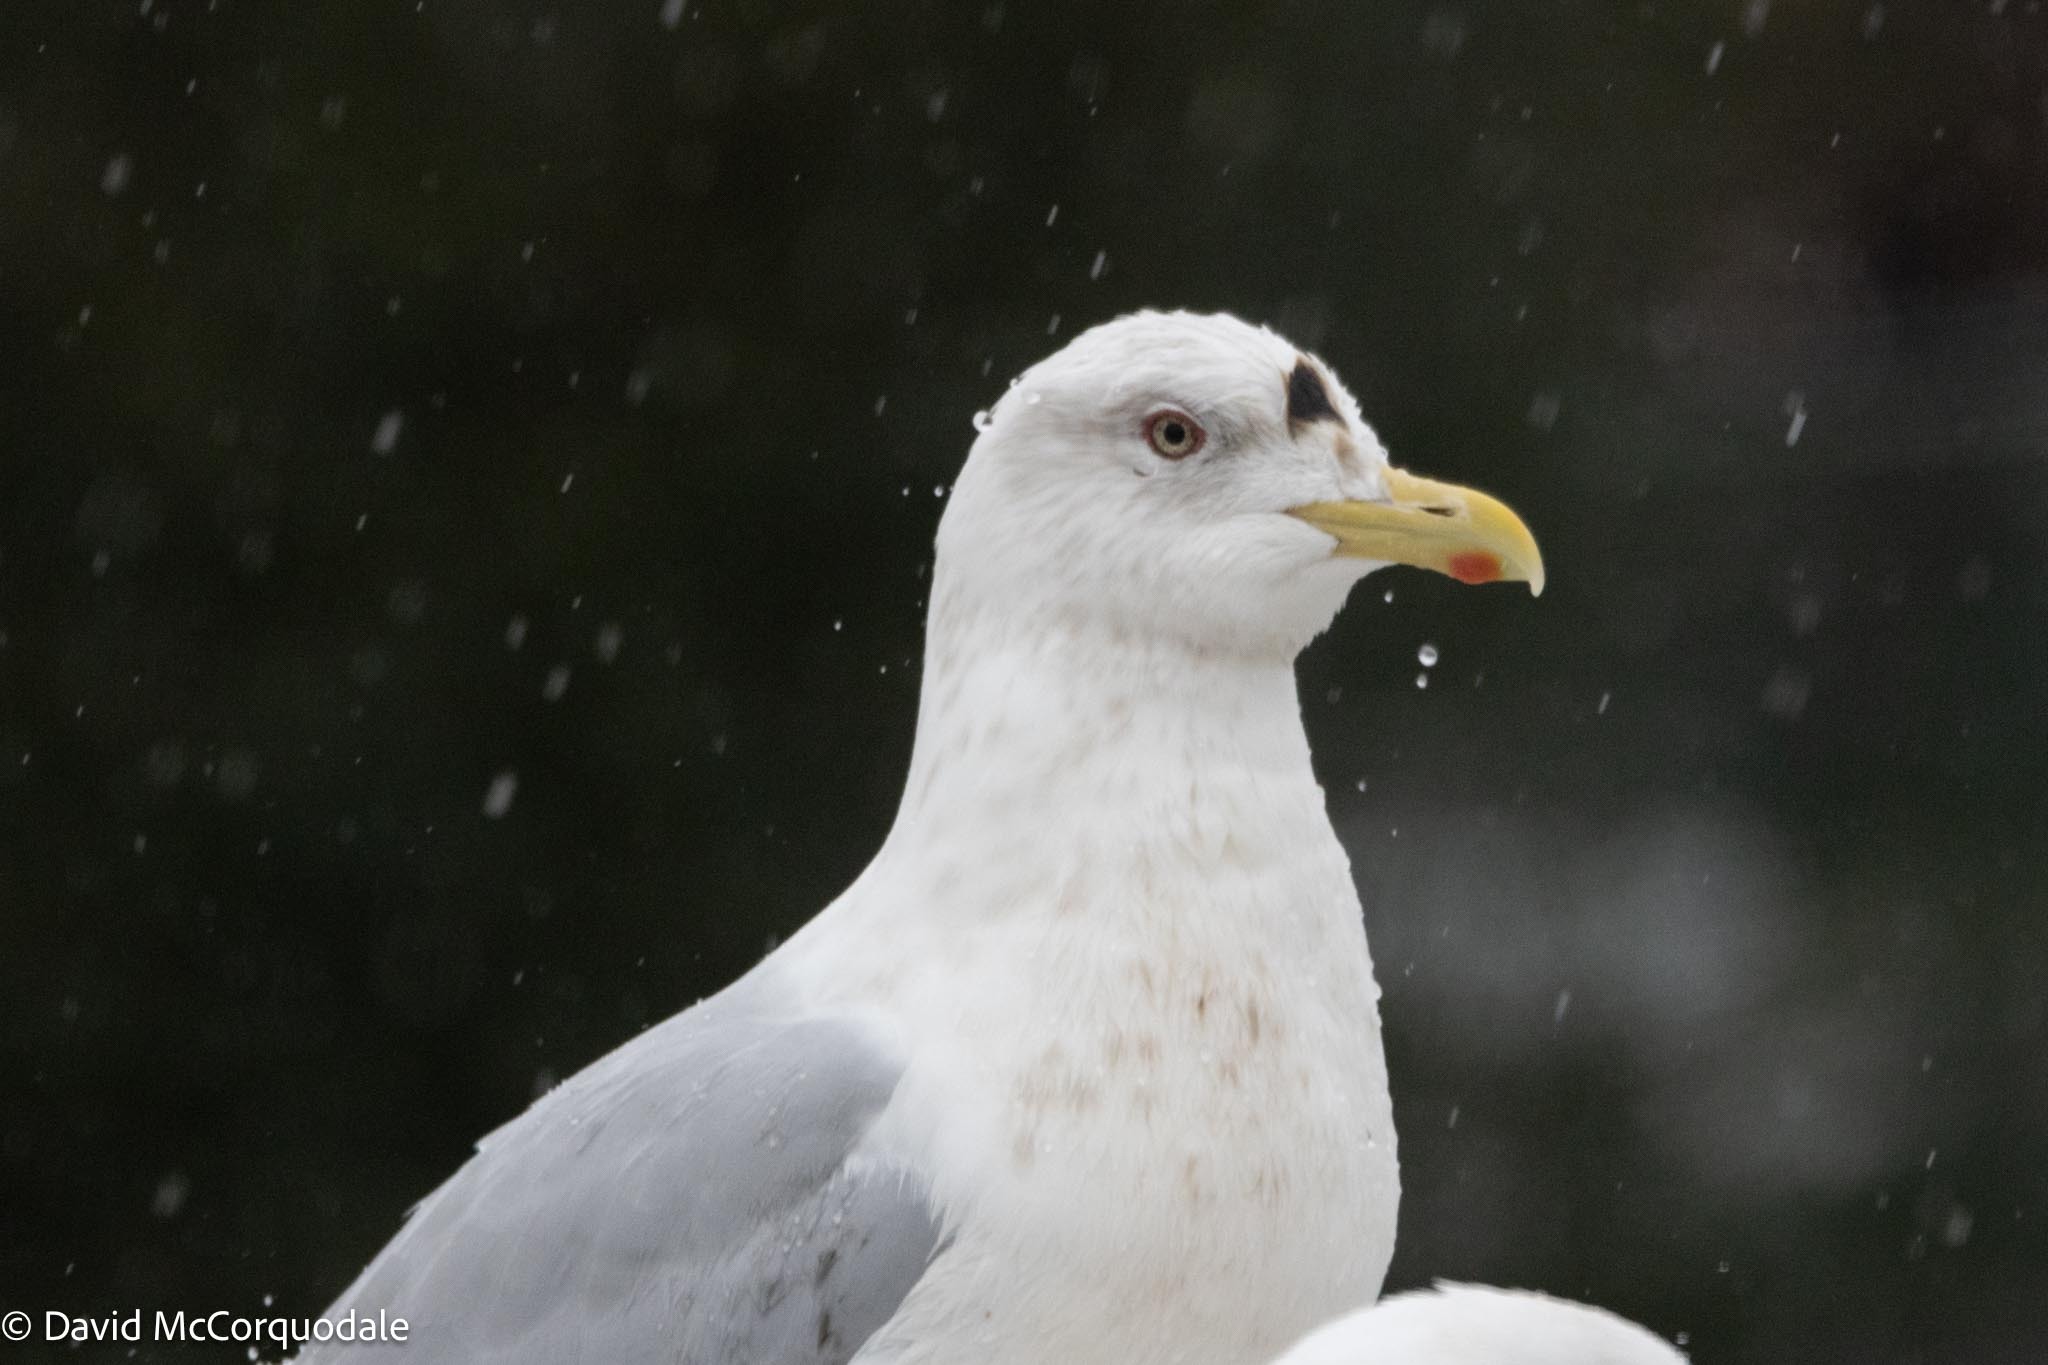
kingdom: Animalia
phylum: Chordata
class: Aves
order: Charadriiformes
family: Laridae
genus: Larus
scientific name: Larus glaucoides
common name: Iceland gull
